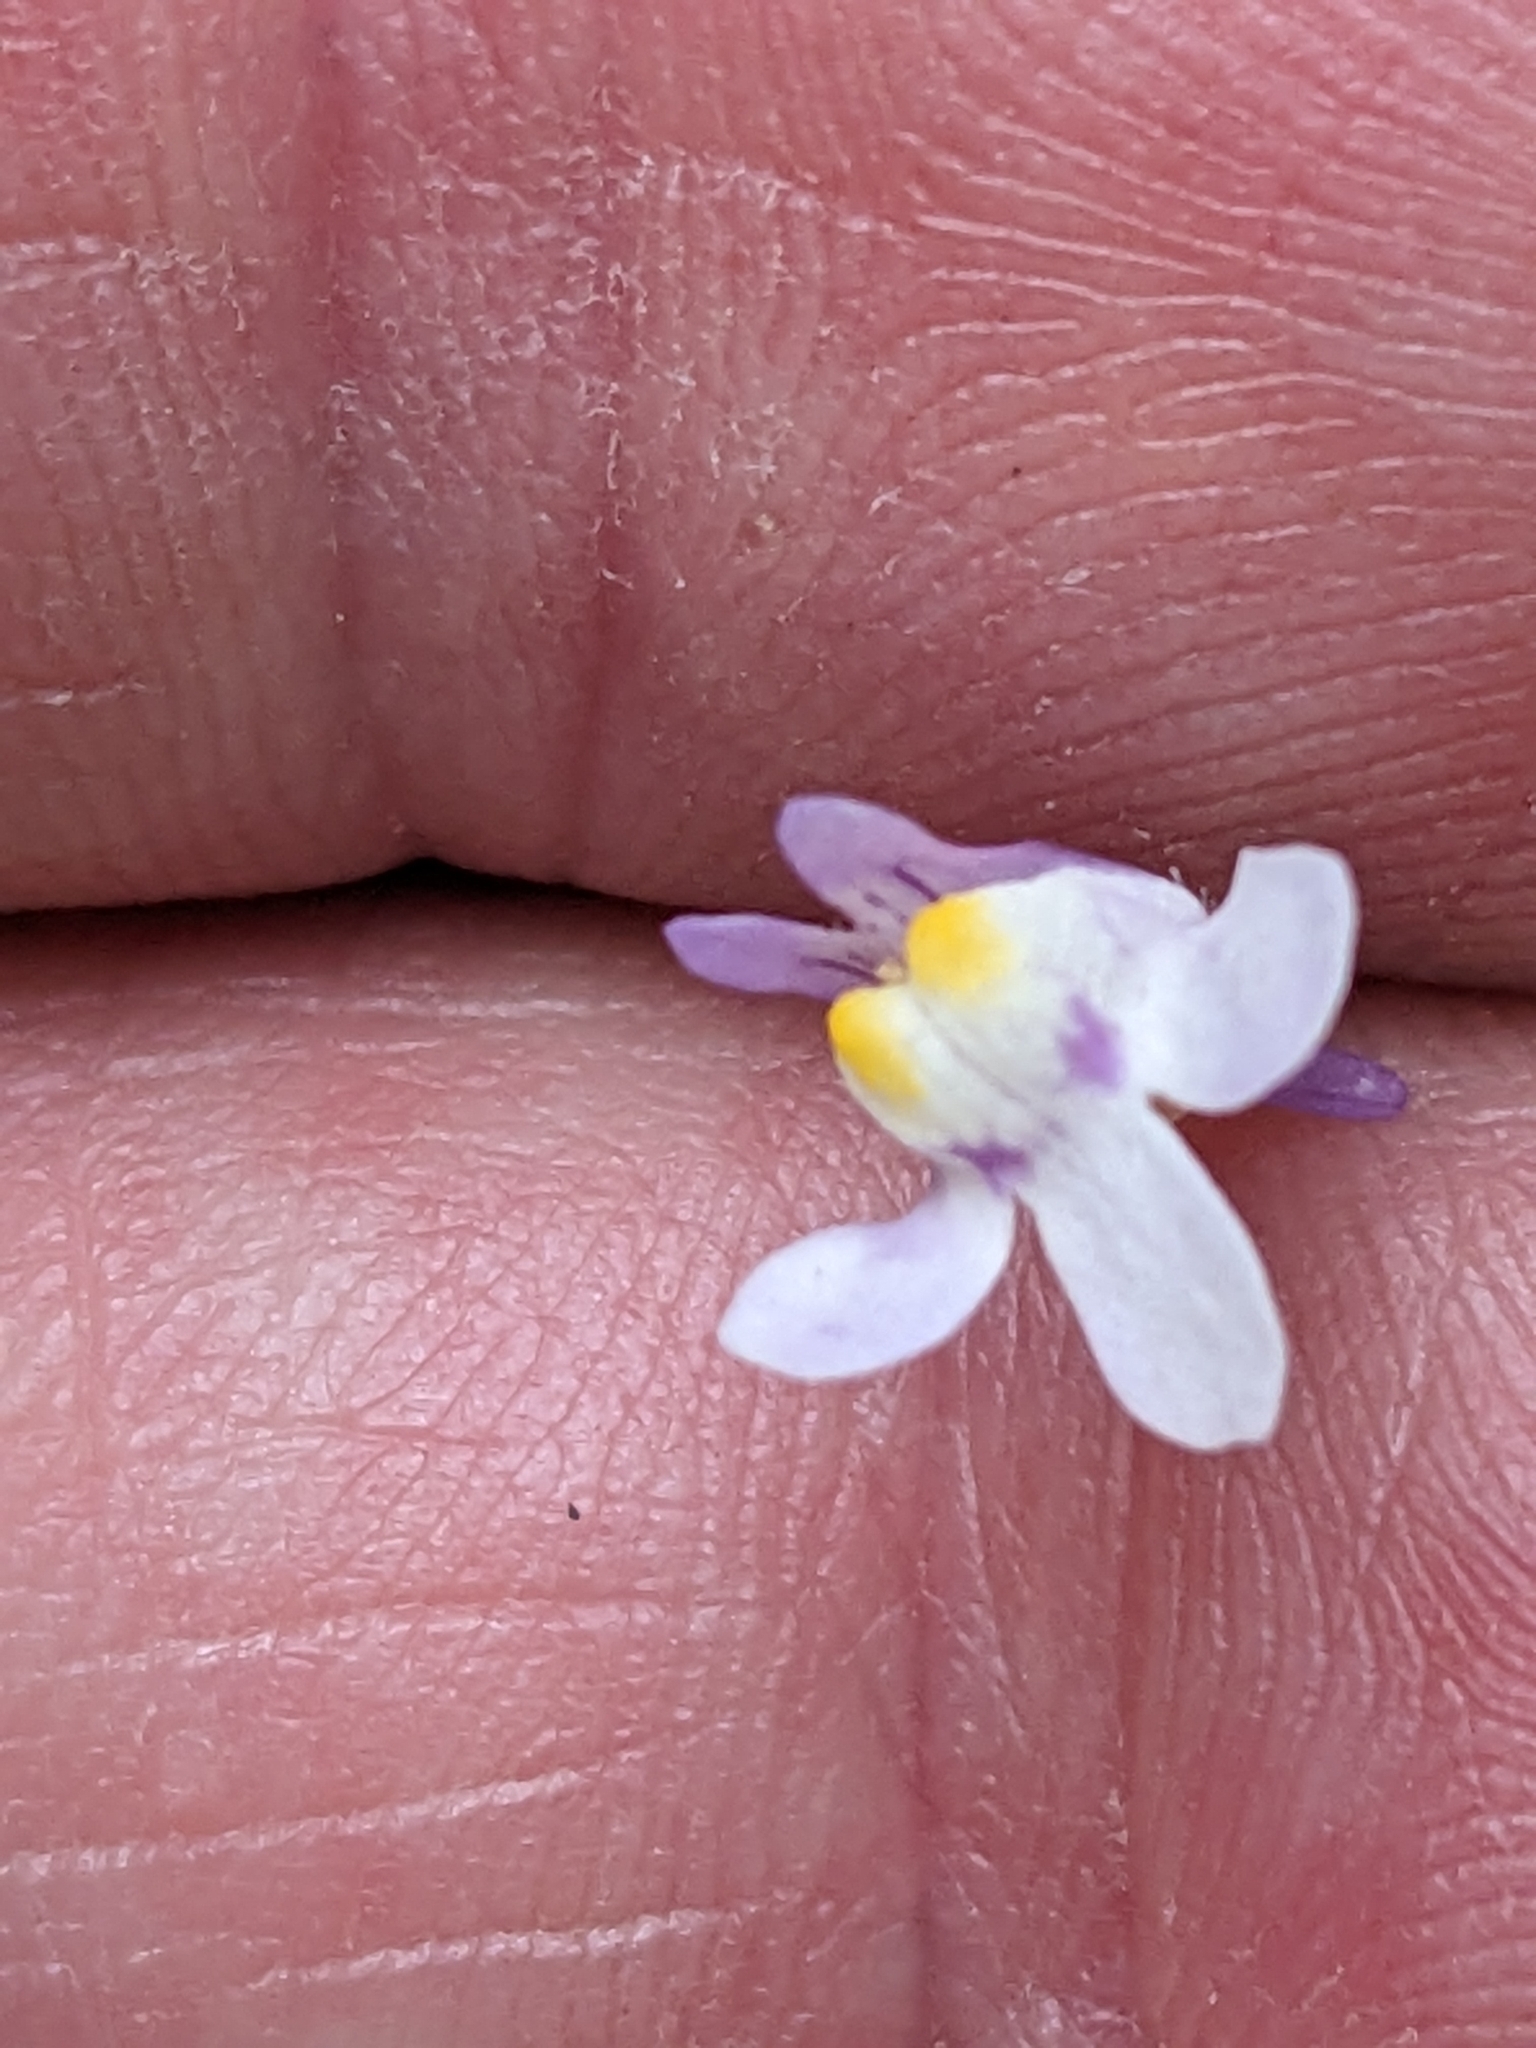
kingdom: Plantae
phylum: Tracheophyta
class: Magnoliopsida
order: Lamiales
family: Plantaginaceae
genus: Cymbalaria
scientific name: Cymbalaria muralis
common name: Ivy-leaved toadflax
